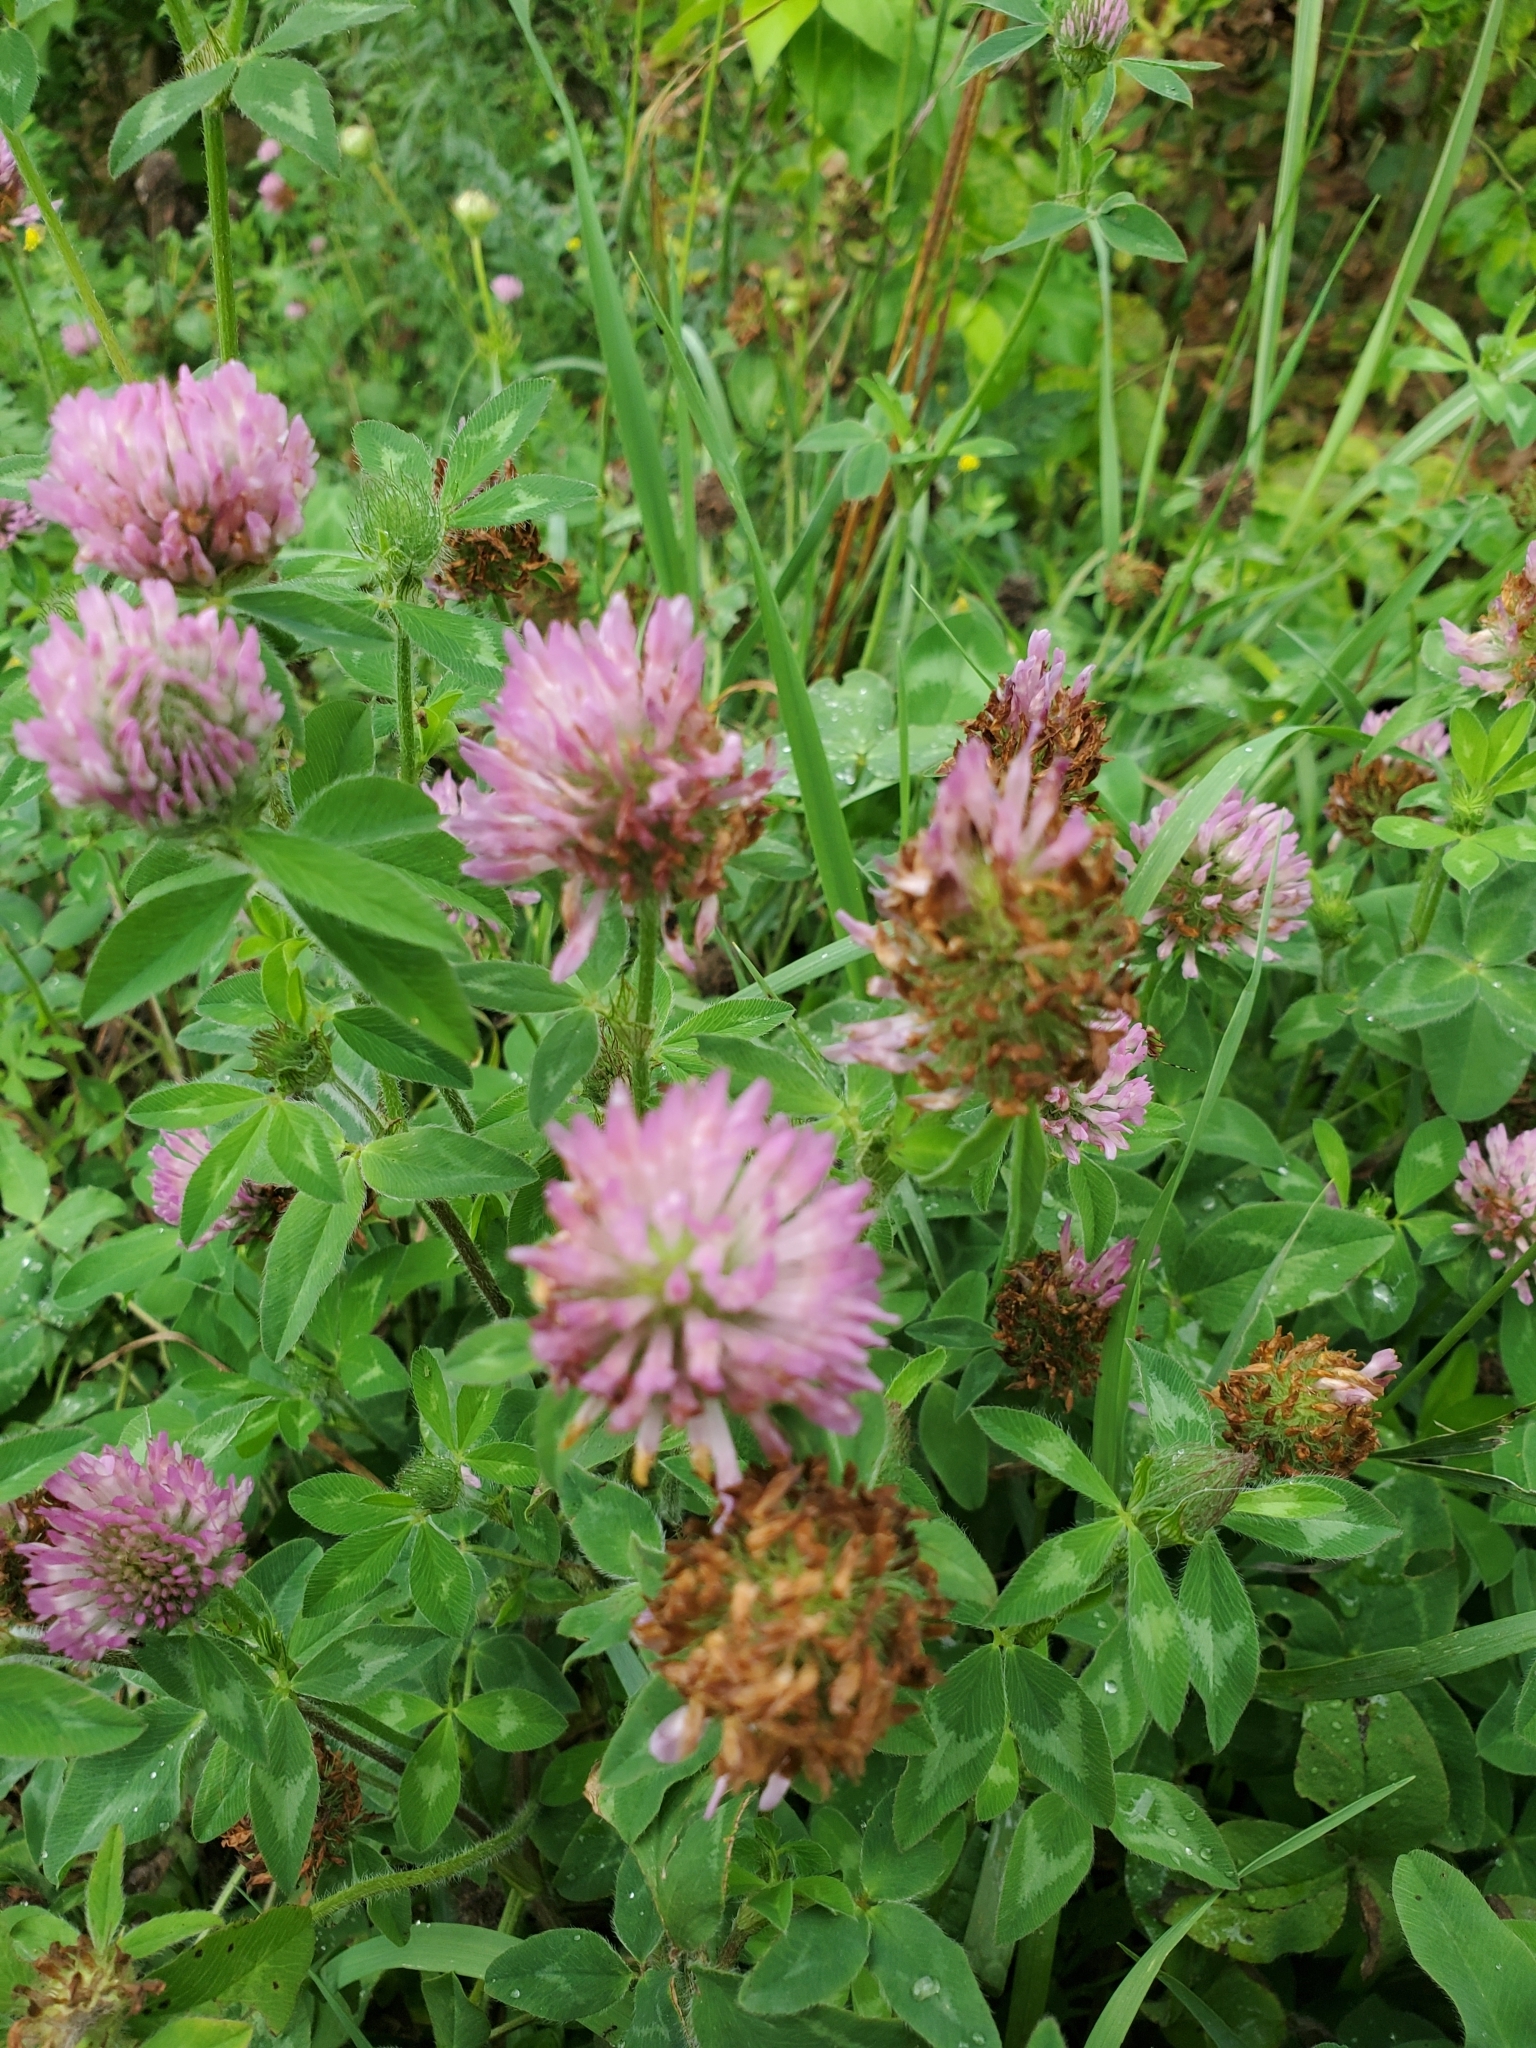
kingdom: Plantae
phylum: Tracheophyta
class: Magnoliopsida
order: Fabales
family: Fabaceae
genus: Trifolium
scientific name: Trifolium pratense
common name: Red clover
